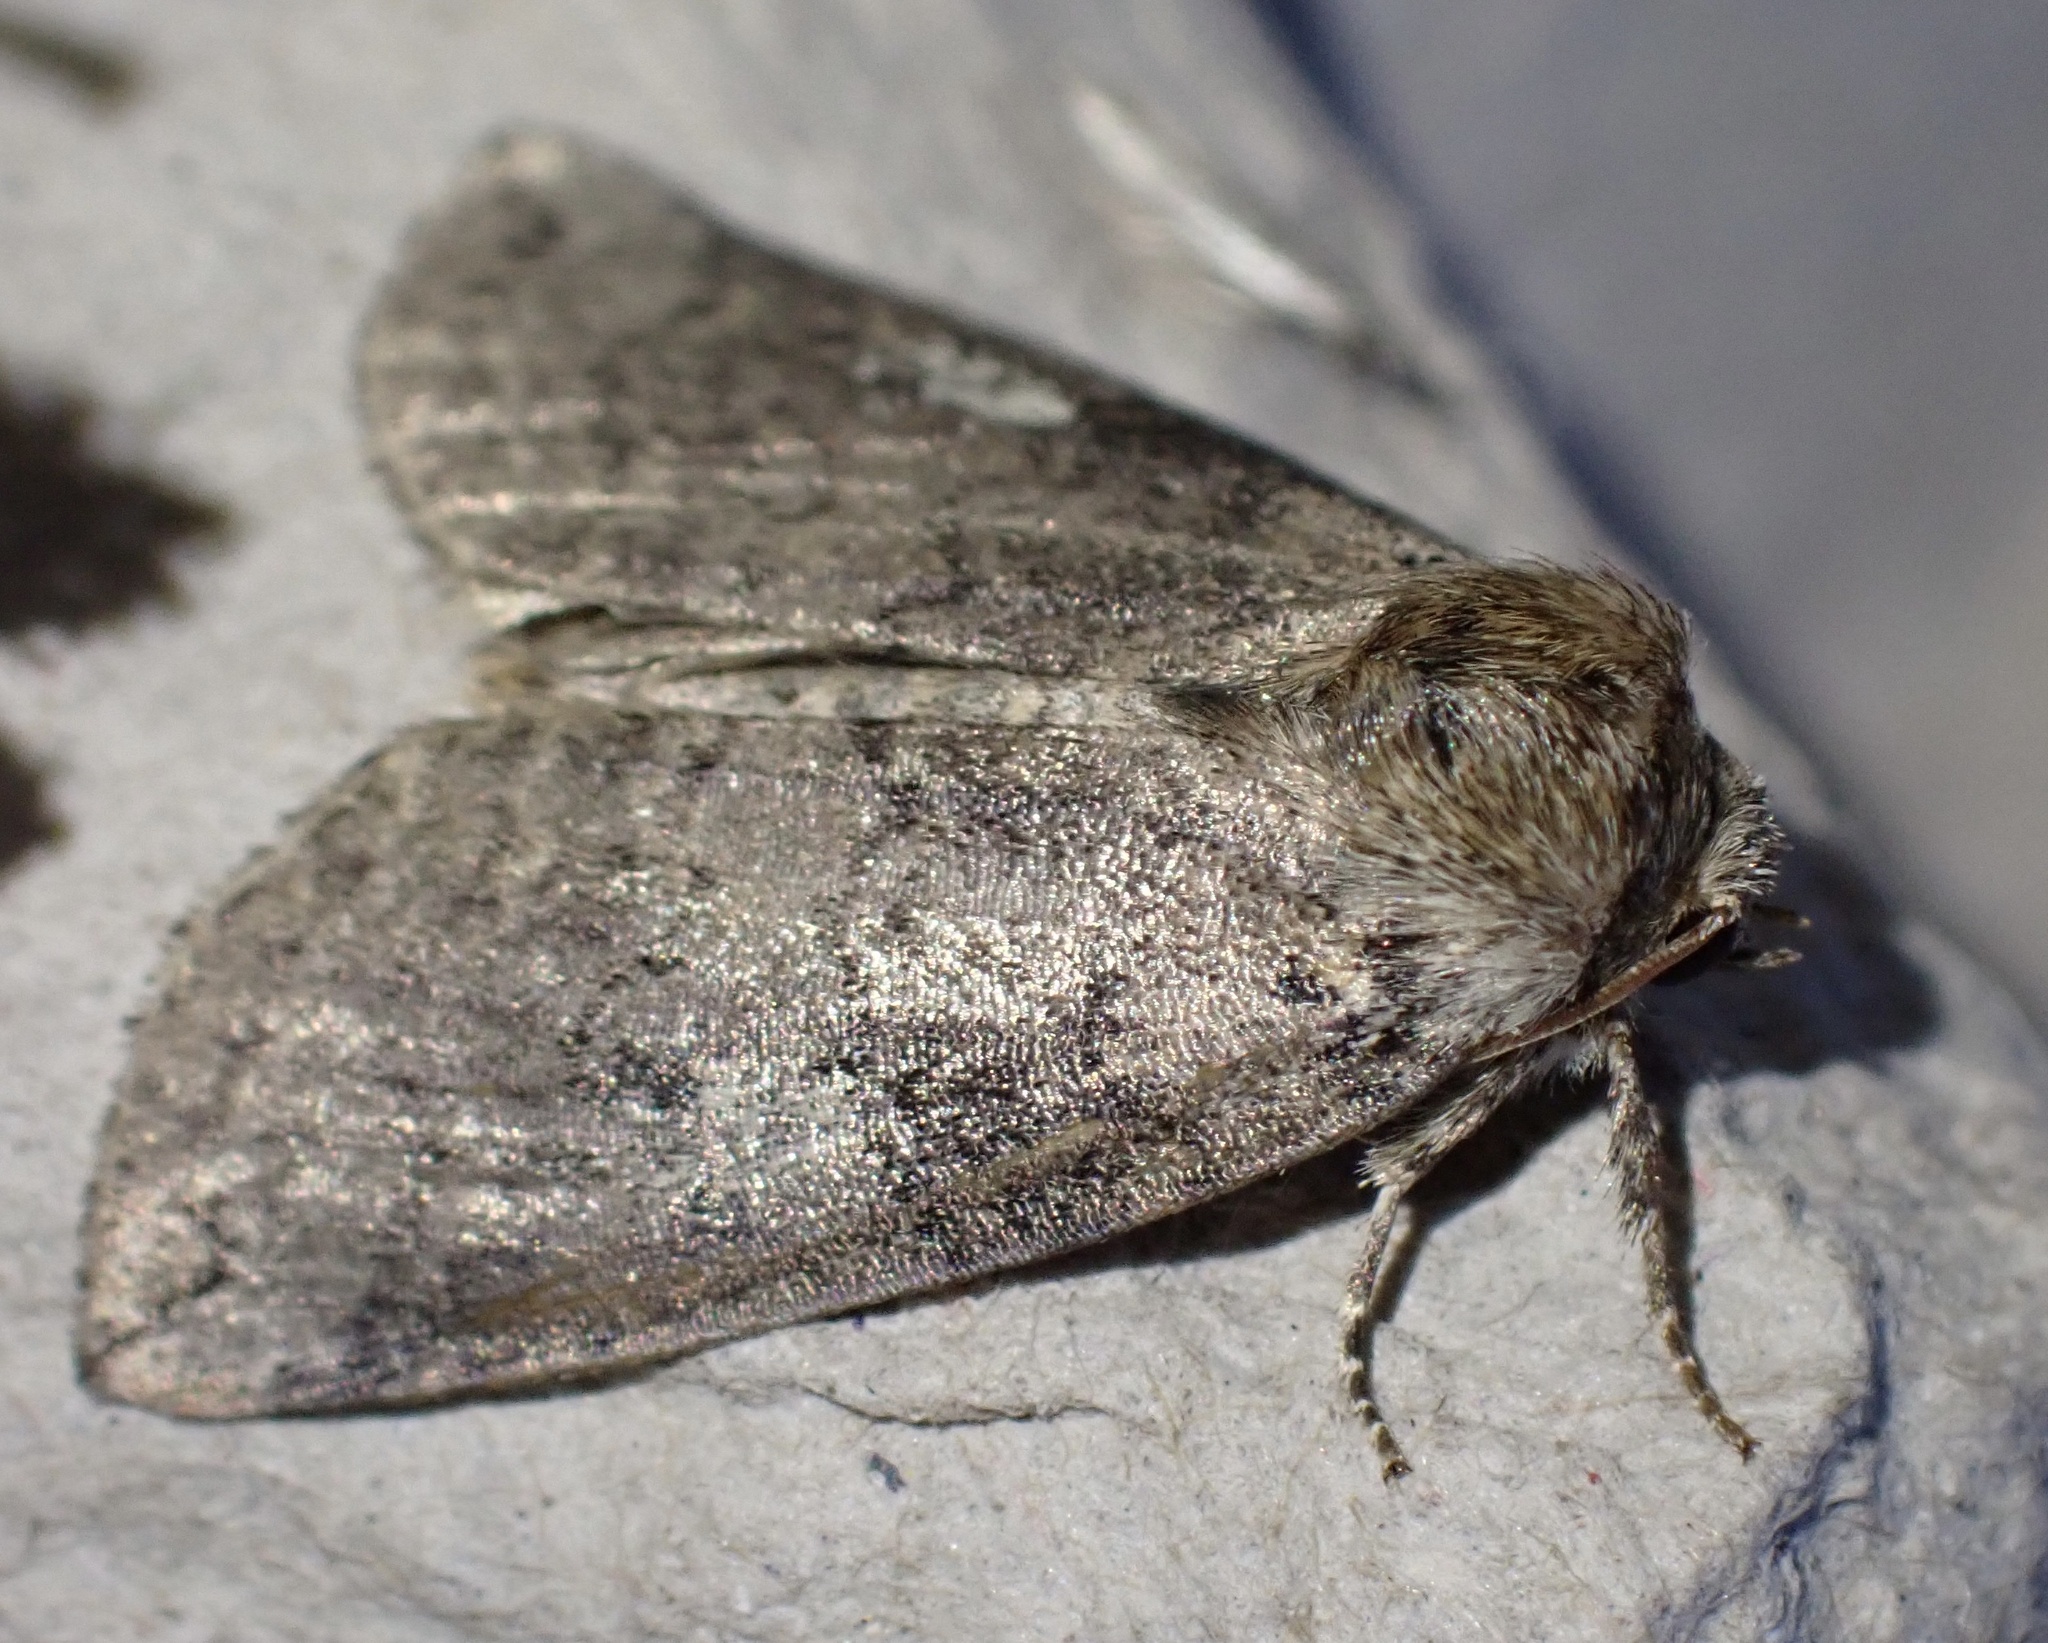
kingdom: Animalia
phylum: Arthropoda
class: Insecta
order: Lepidoptera
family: Drepanidae
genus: Tethea
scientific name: Tethea or
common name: Poplar lutestring
